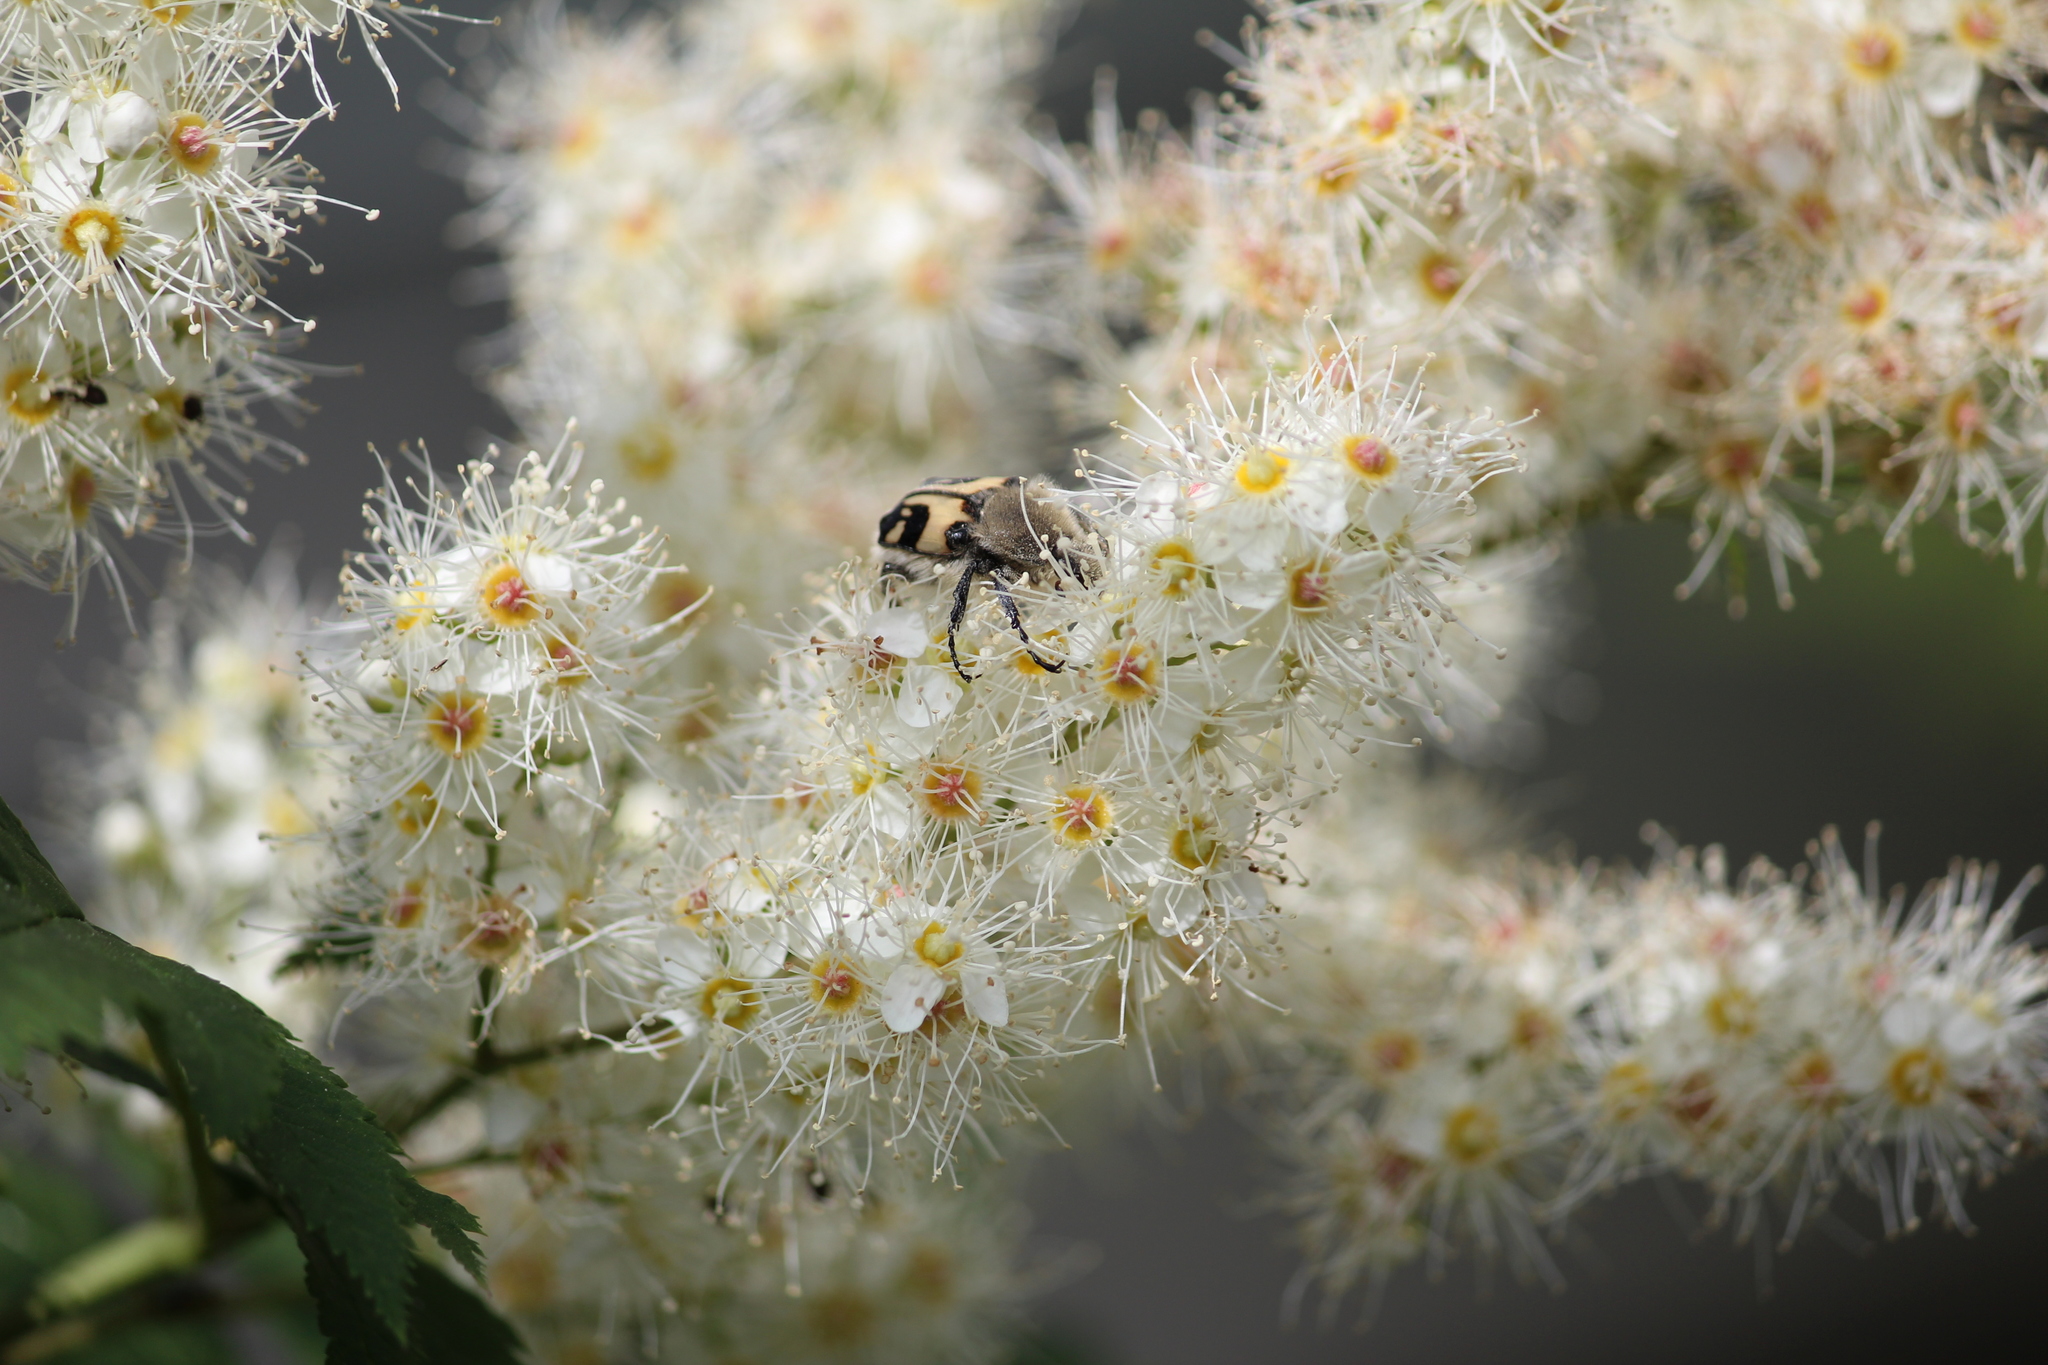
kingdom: Animalia
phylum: Arthropoda
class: Insecta
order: Coleoptera
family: Scarabaeidae
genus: Trichius
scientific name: Trichius fasciatus
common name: Bee beetle
